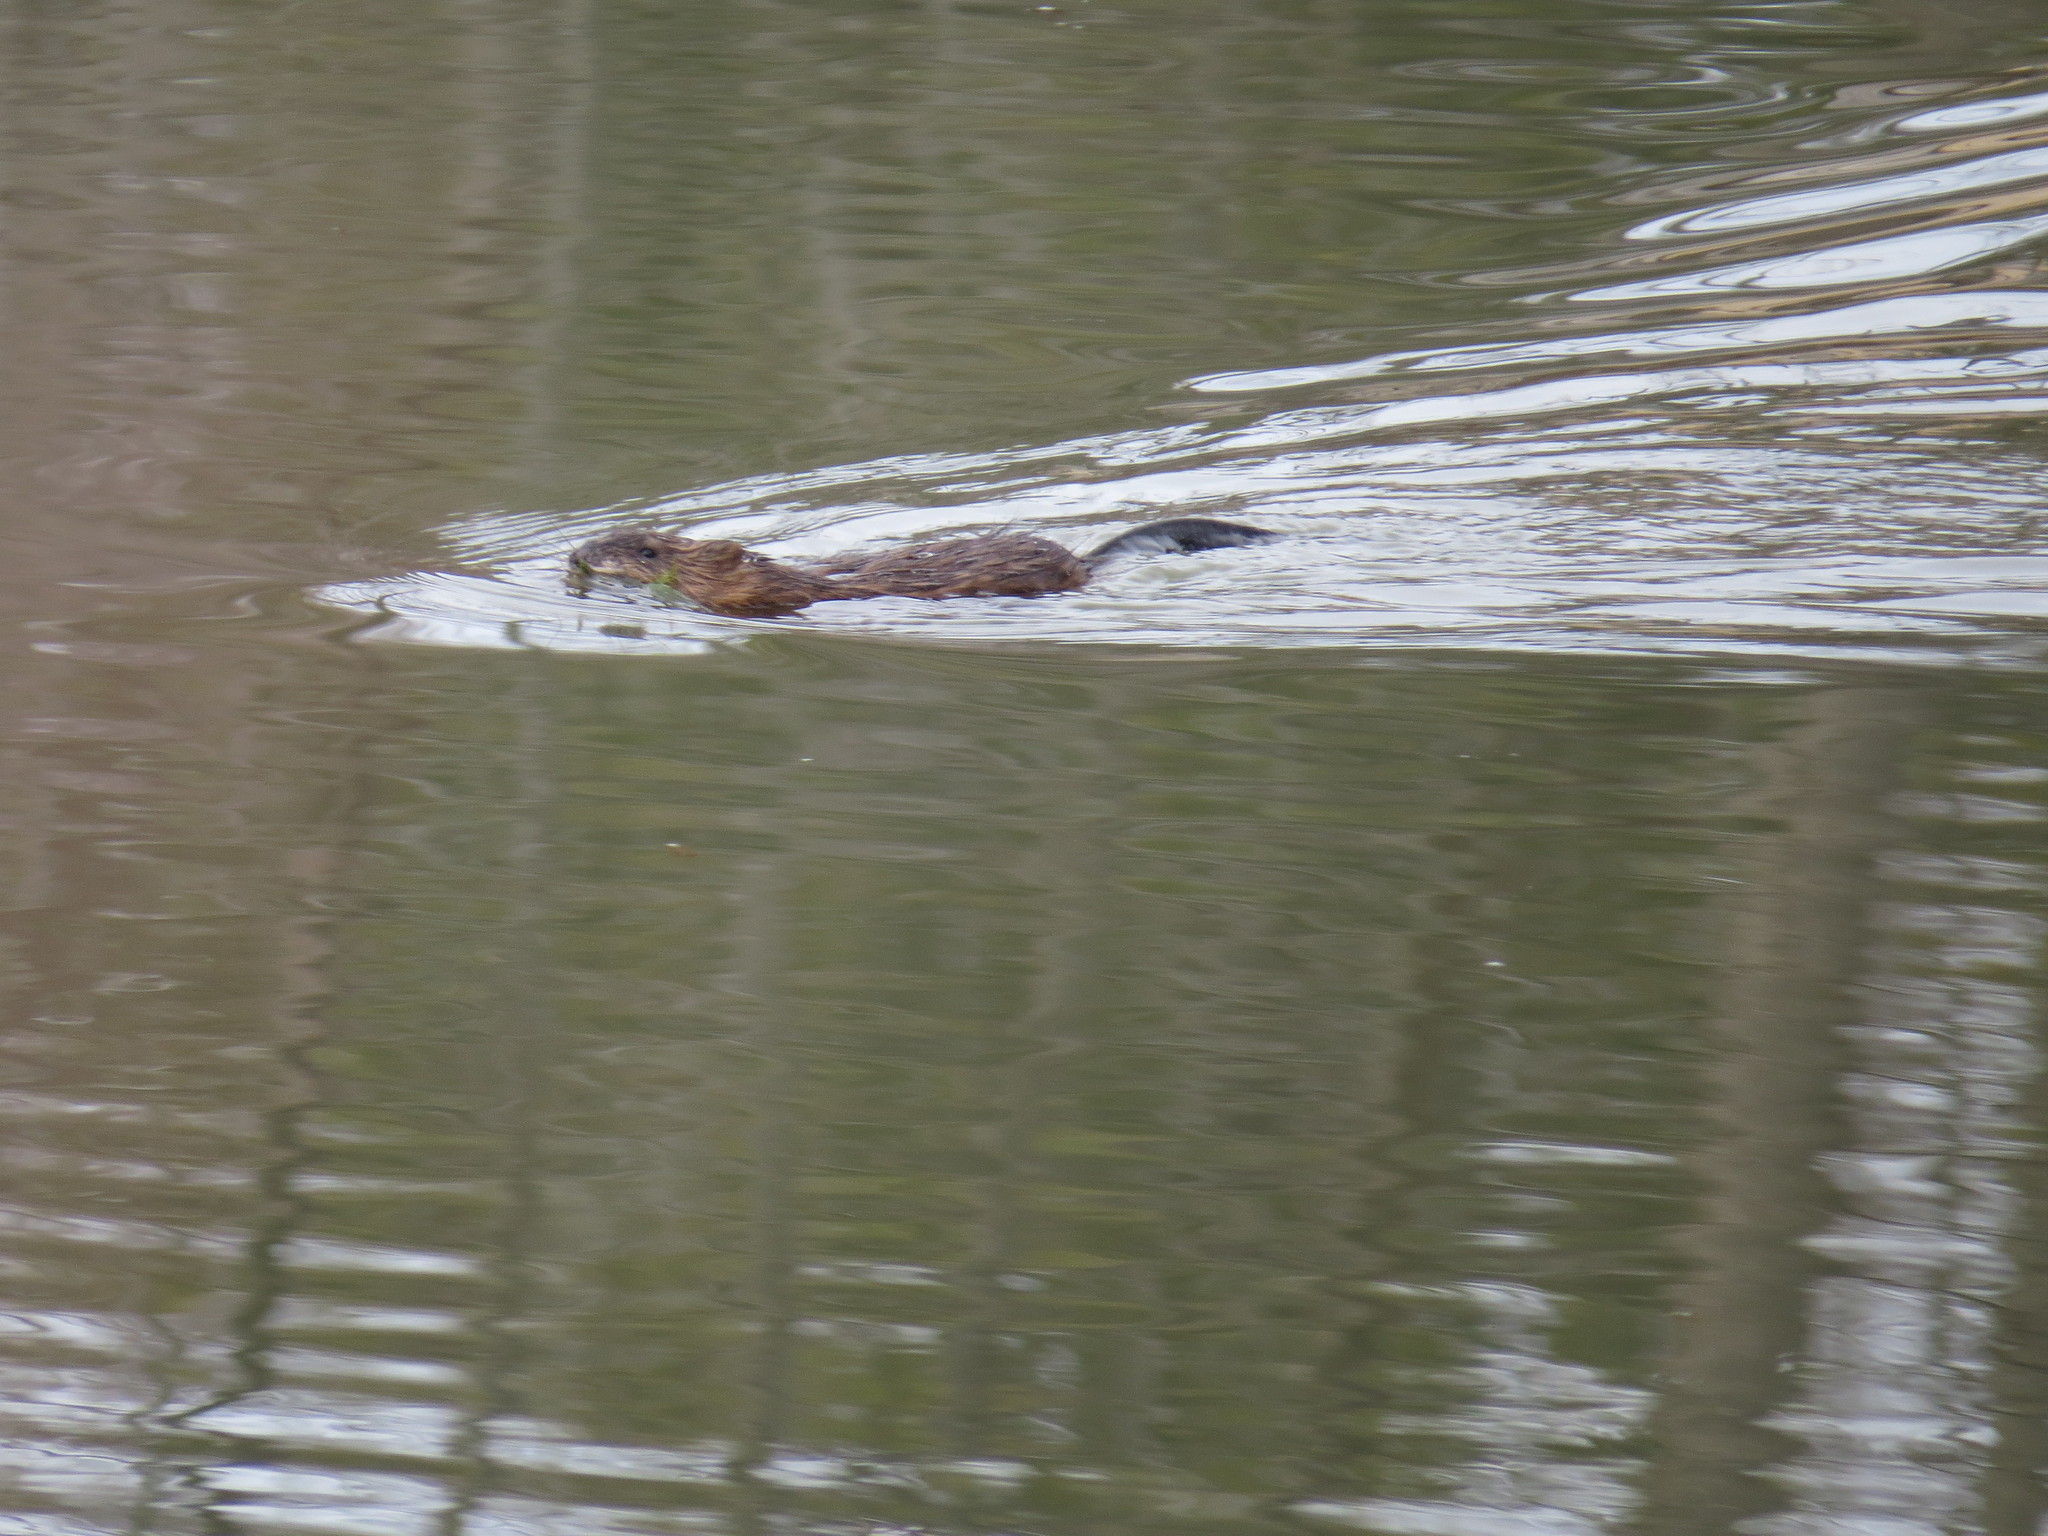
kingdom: Animalia
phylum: Chordata
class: Mammalia
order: Rodentia
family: Cricetidae
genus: Ondatra
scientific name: Ondatra zibethicus
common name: Muskrat
